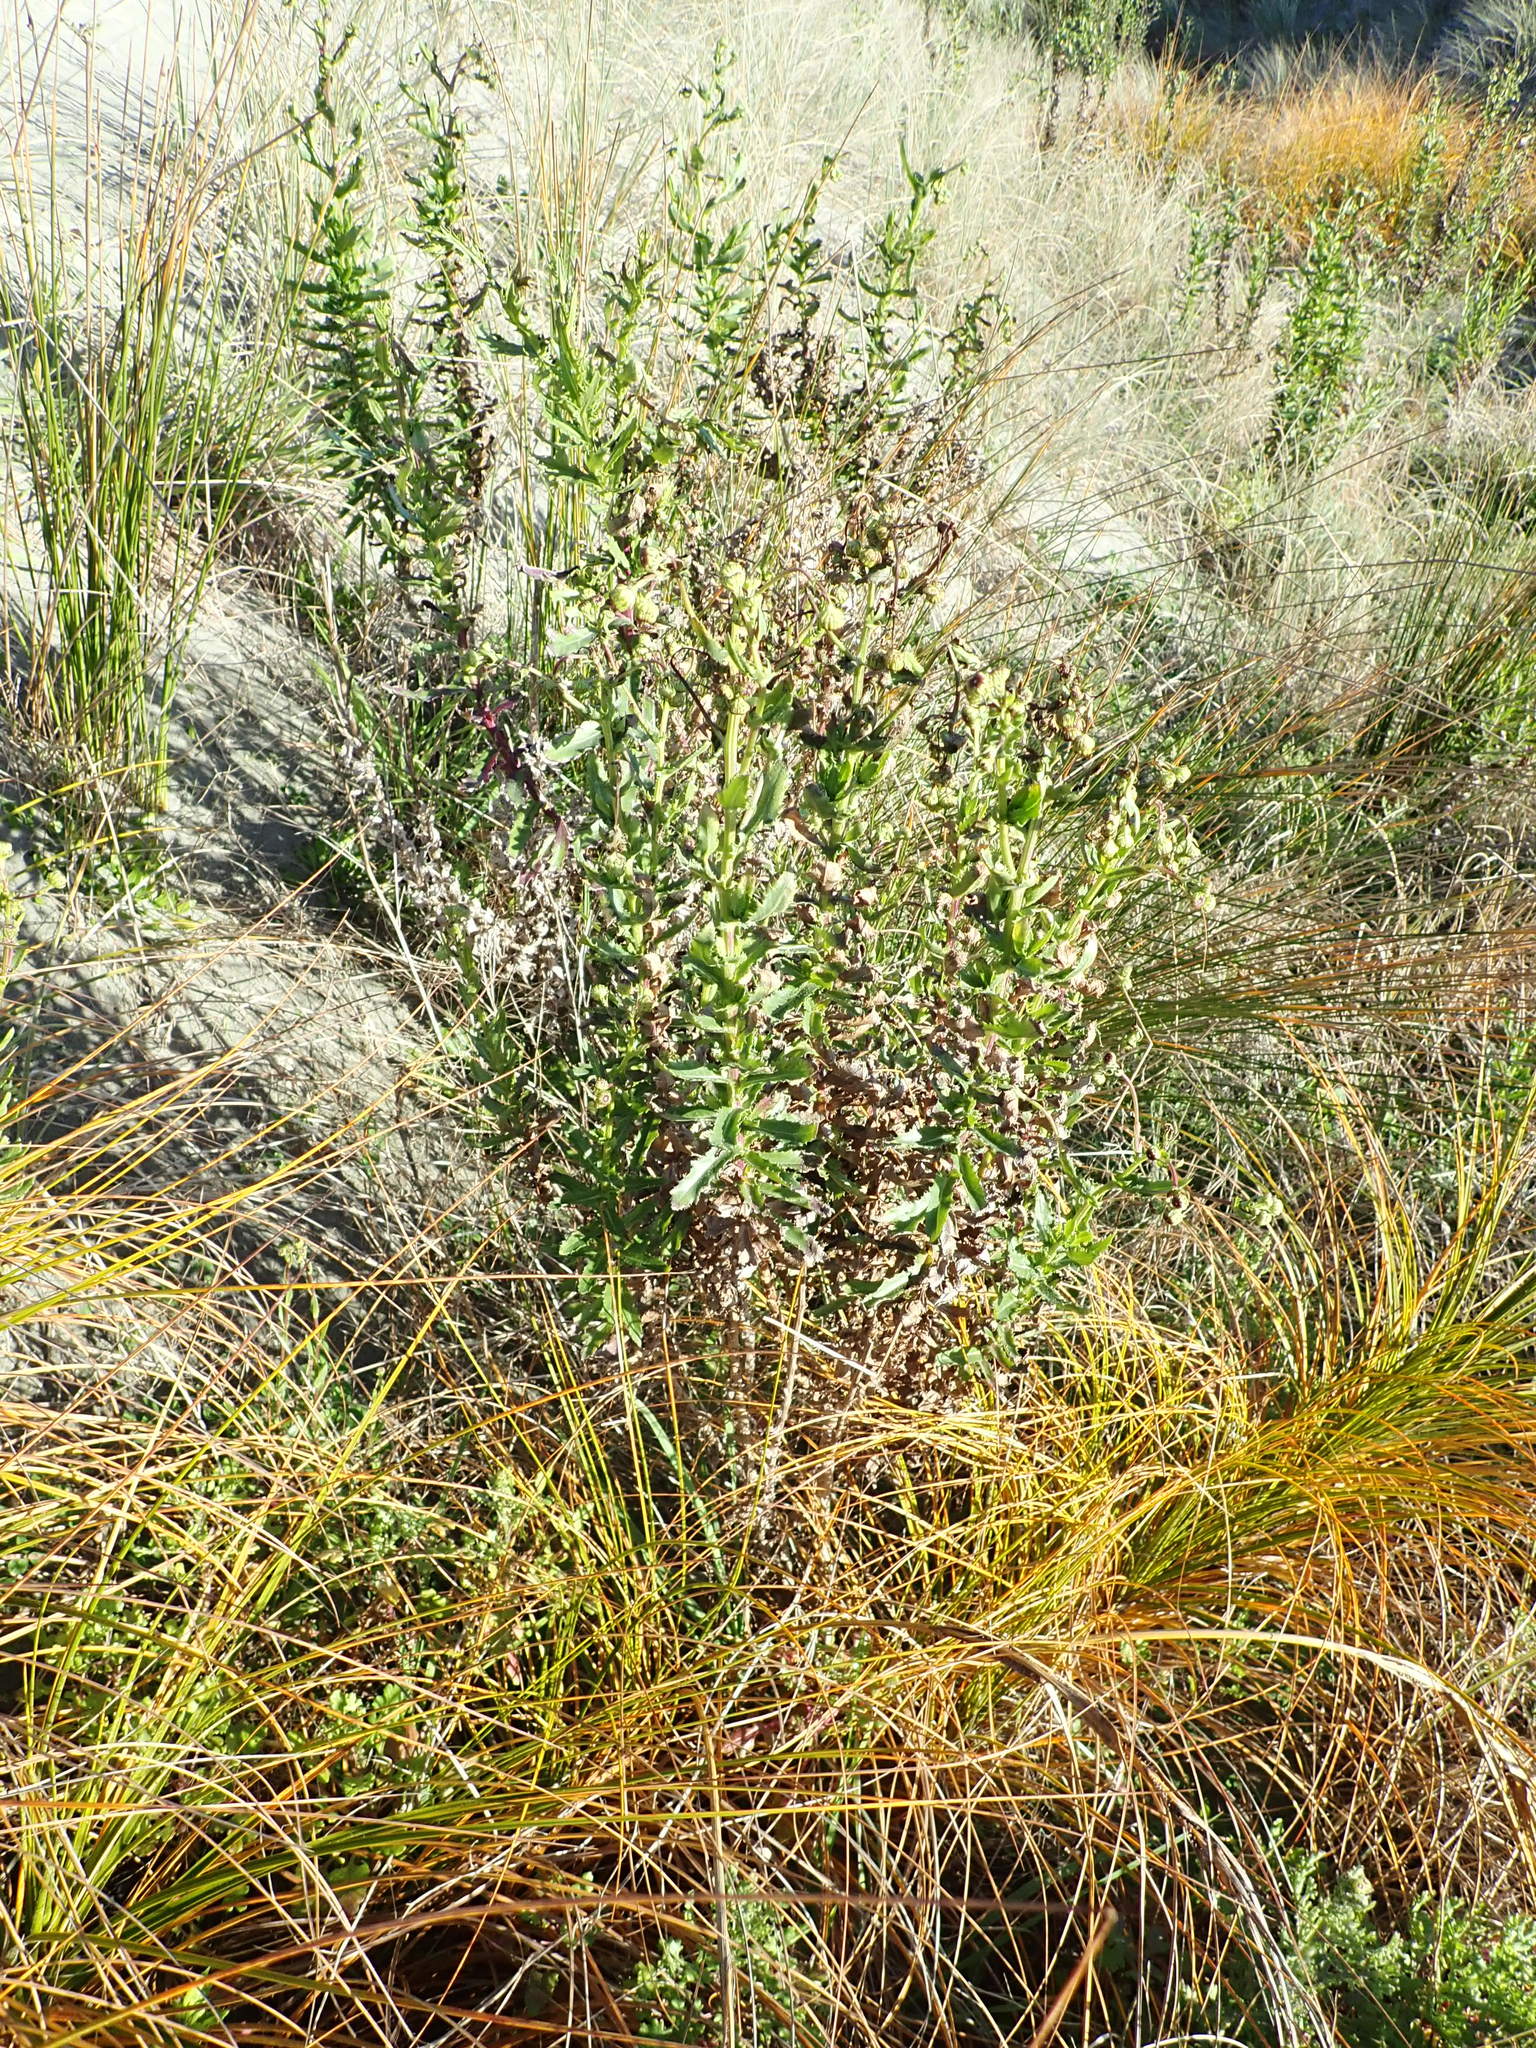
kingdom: Plantae
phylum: Tracheophyta
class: Magnoliopsida
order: Asterales
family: Asteraceae
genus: Senecio
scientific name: Senecio glastifolius
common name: Woad-leaved ragwort
